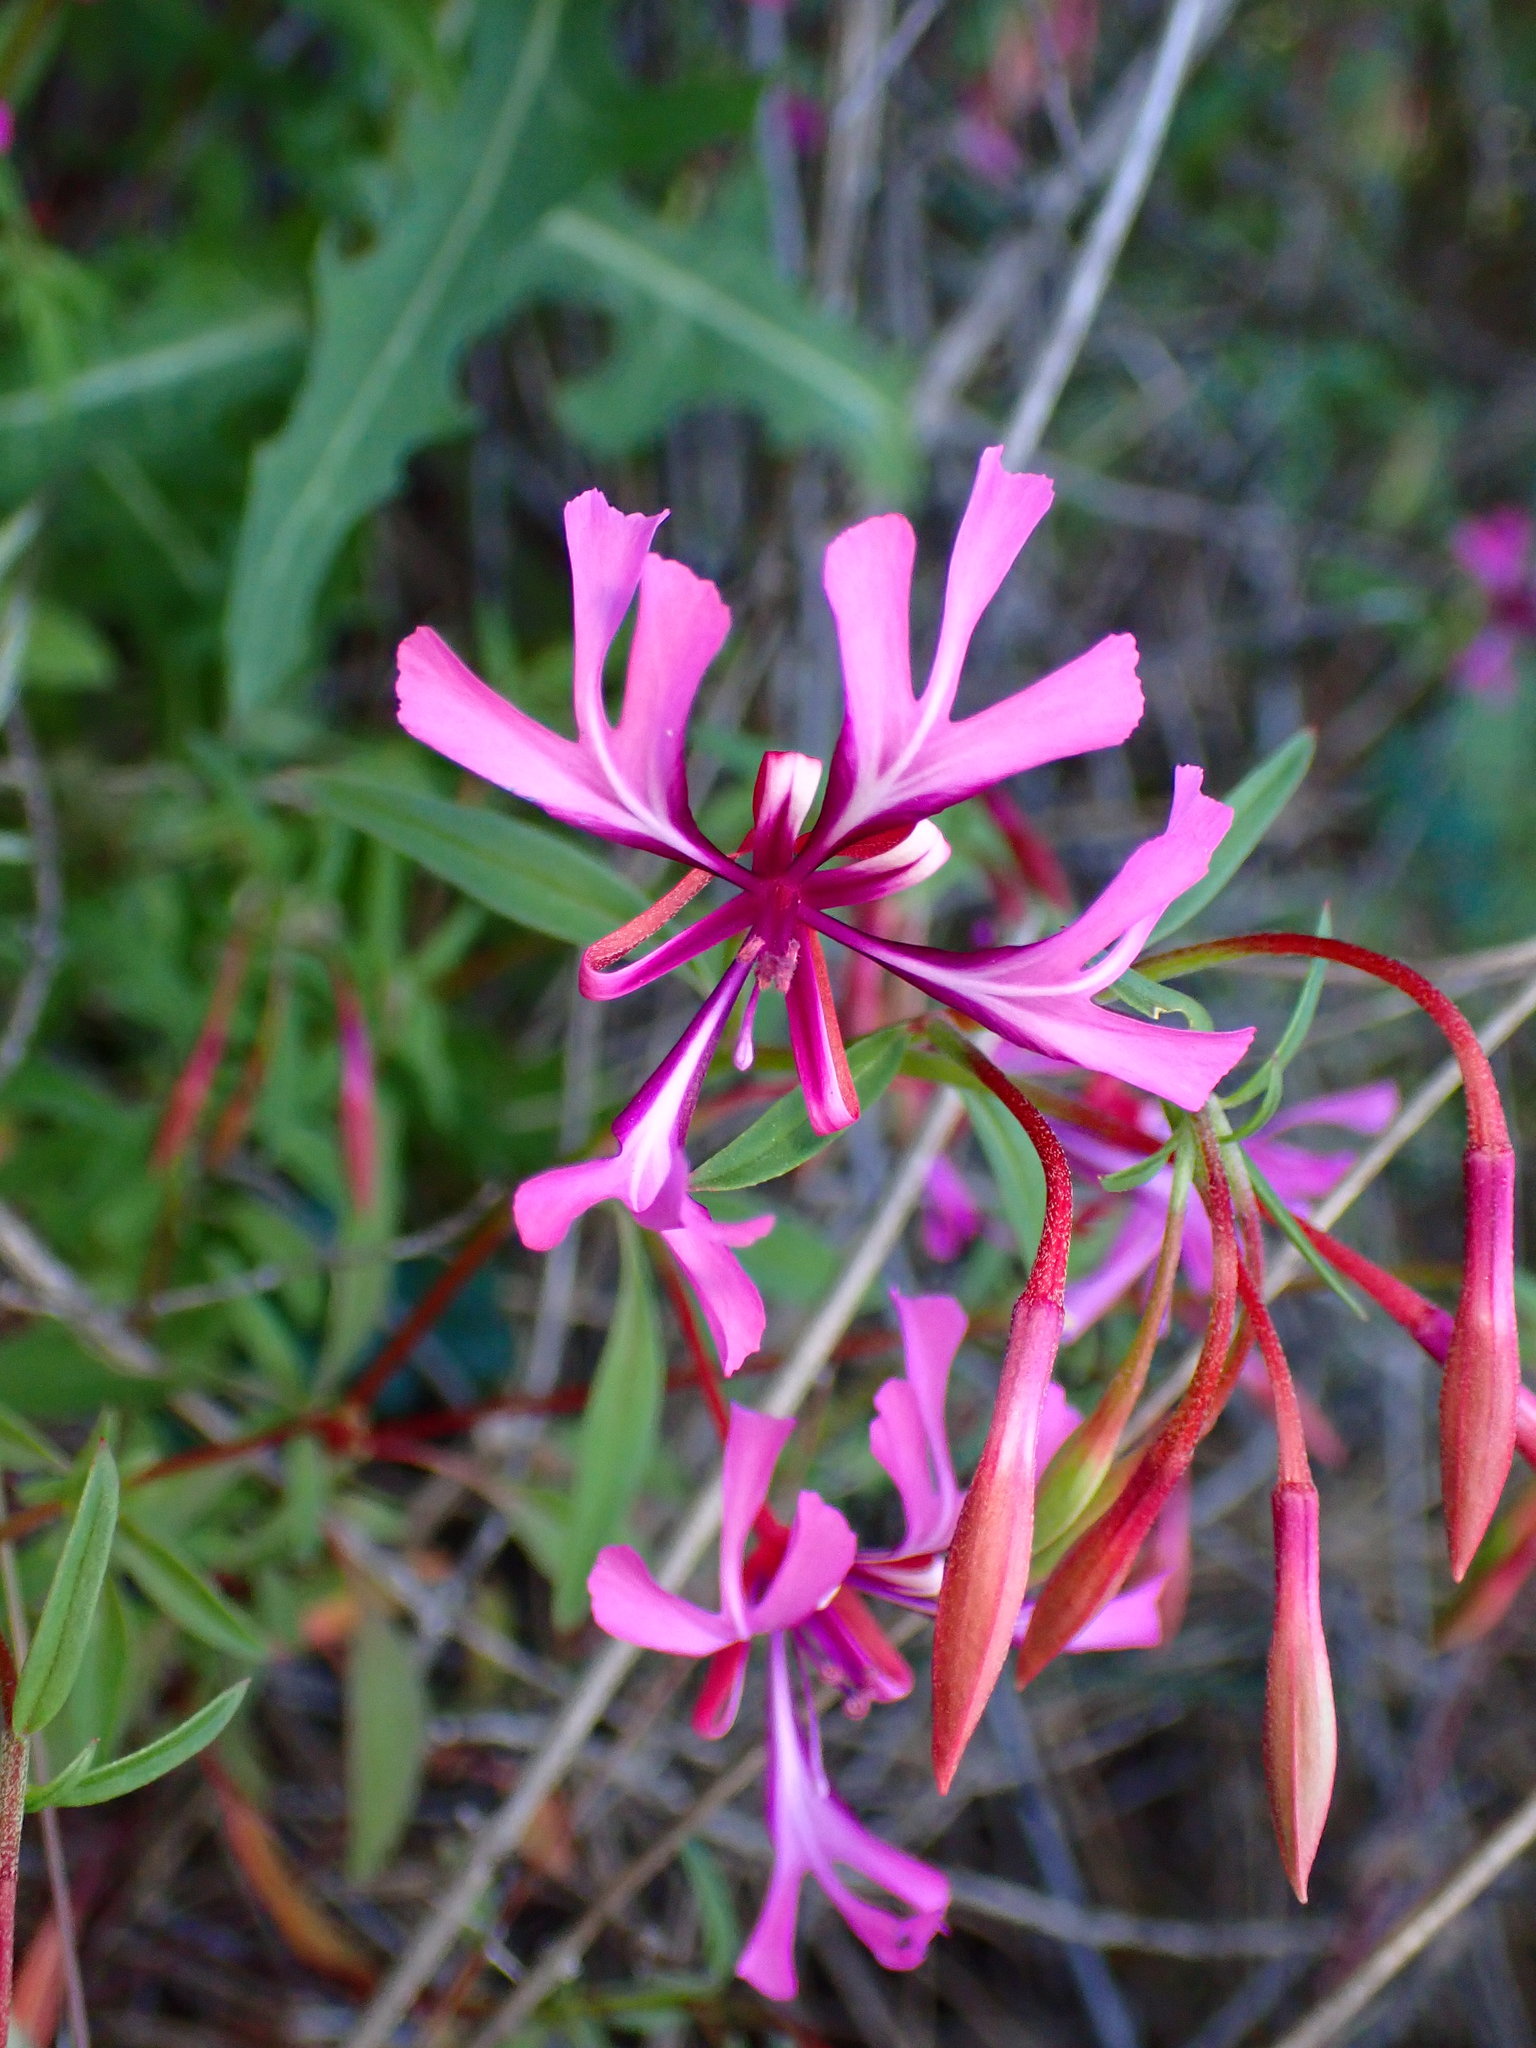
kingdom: Plantae
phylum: Tracheophyta
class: Magnoliopsida
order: Myrtales
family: Onagraceae
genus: Clarkia
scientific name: Clarkia concinna
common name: Red-ribbons
